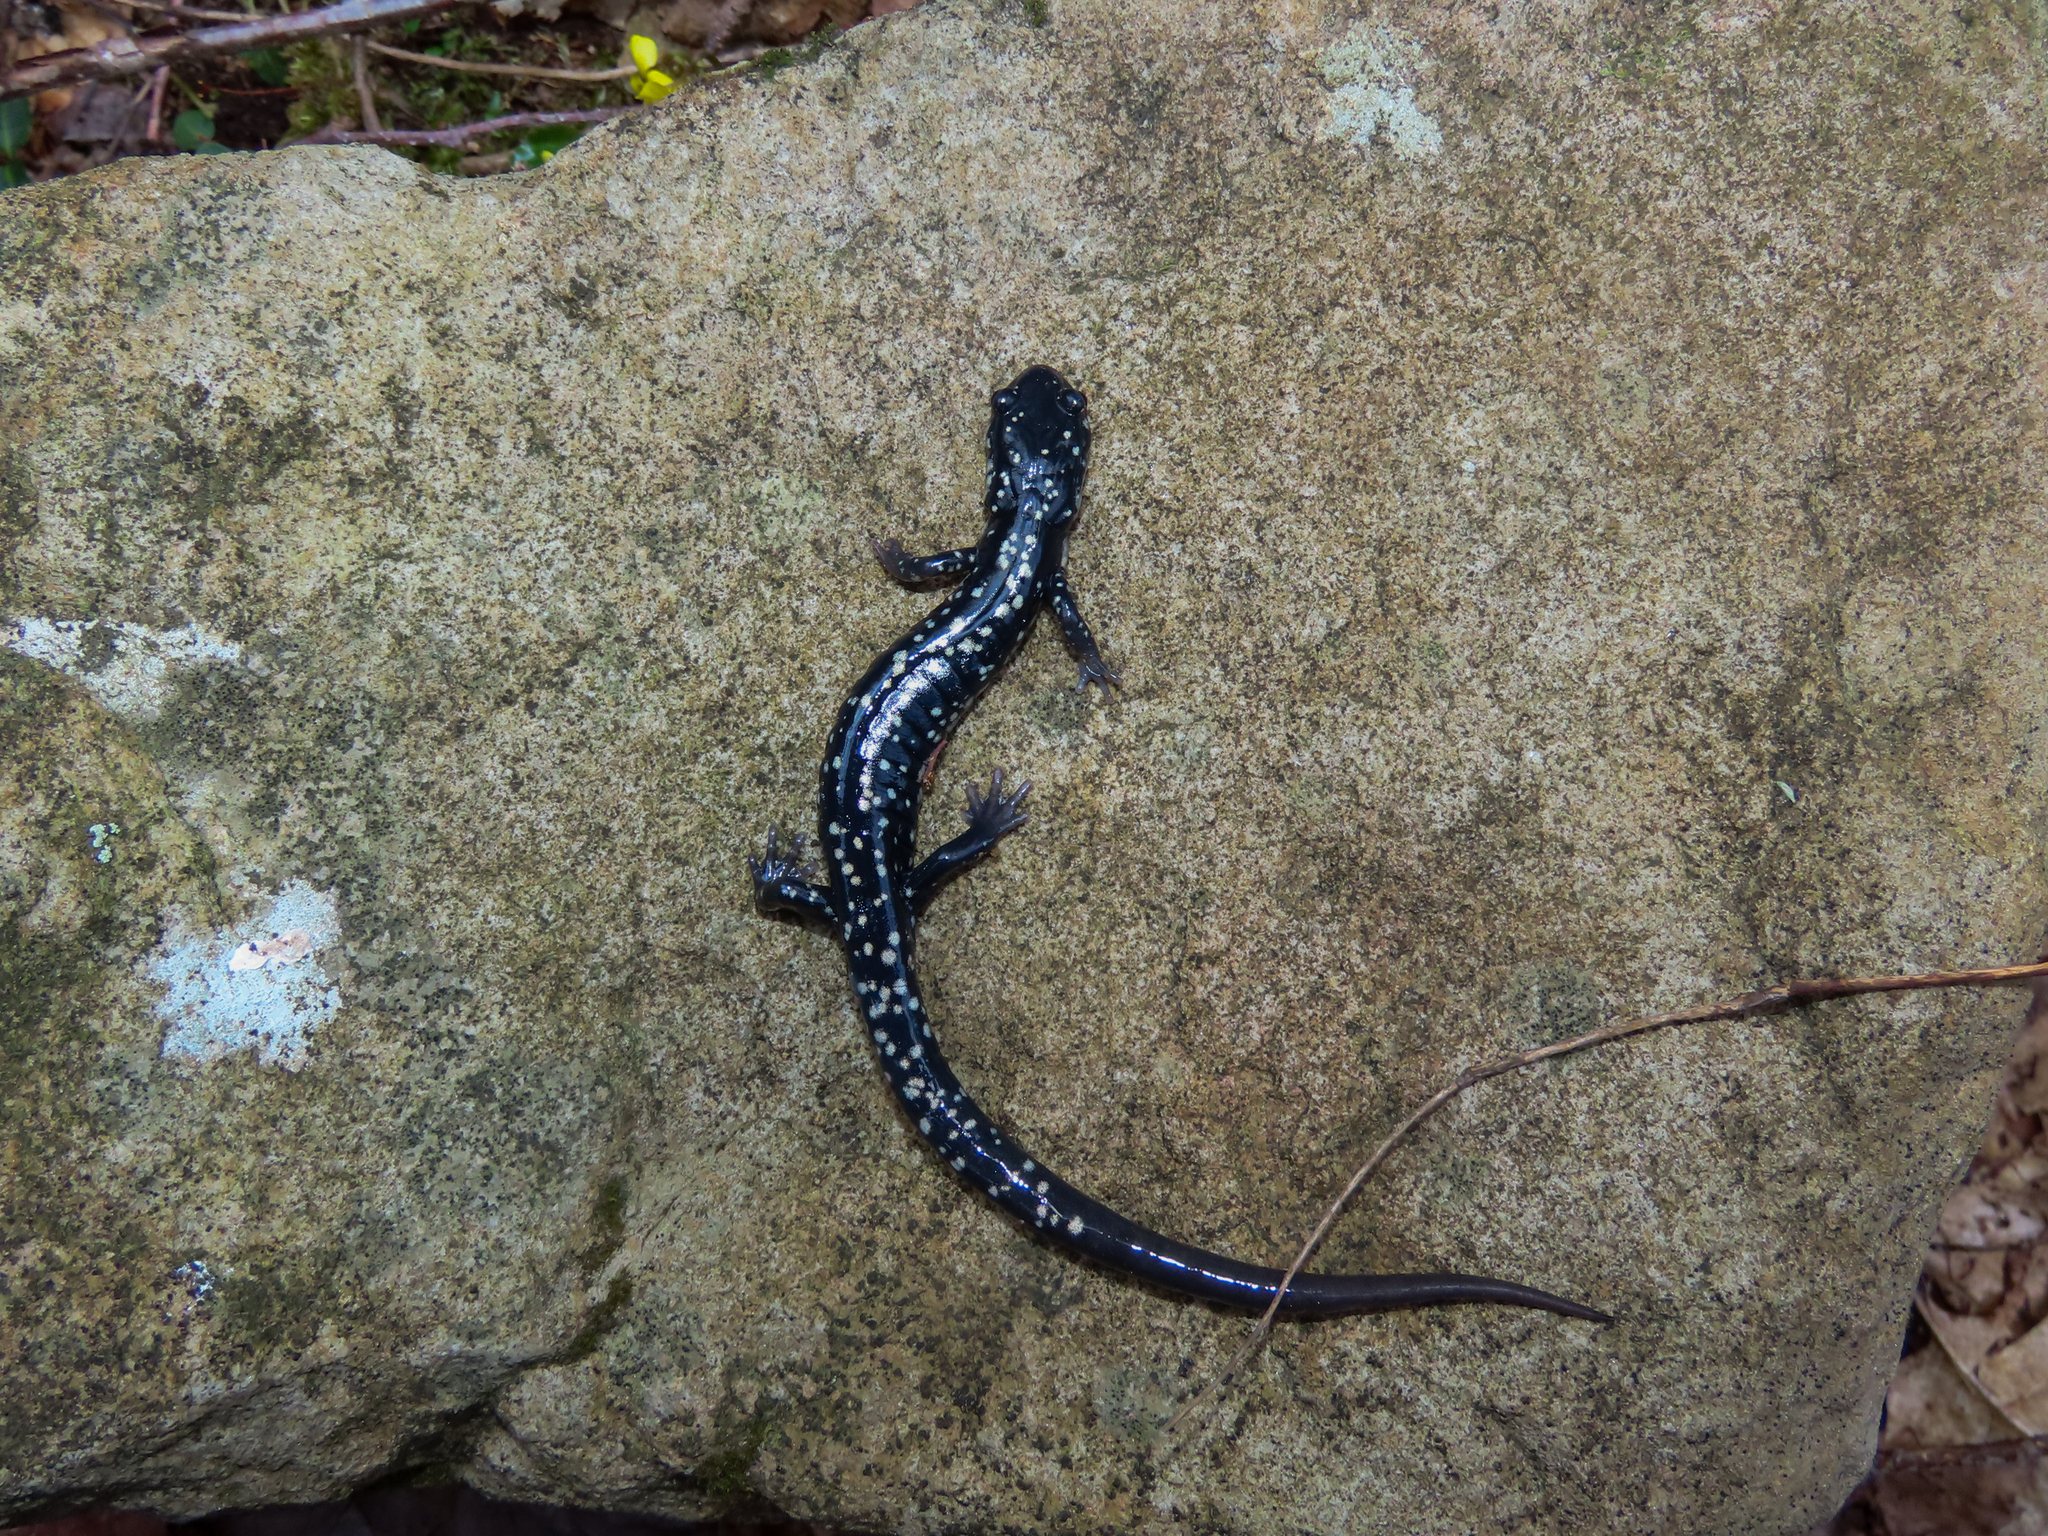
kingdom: Animalia
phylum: Chordata
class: Amphibia
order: Caudata
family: Plethodontidae
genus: Plethodon
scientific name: Plethodon glutinosus
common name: Northern slimy salamander
